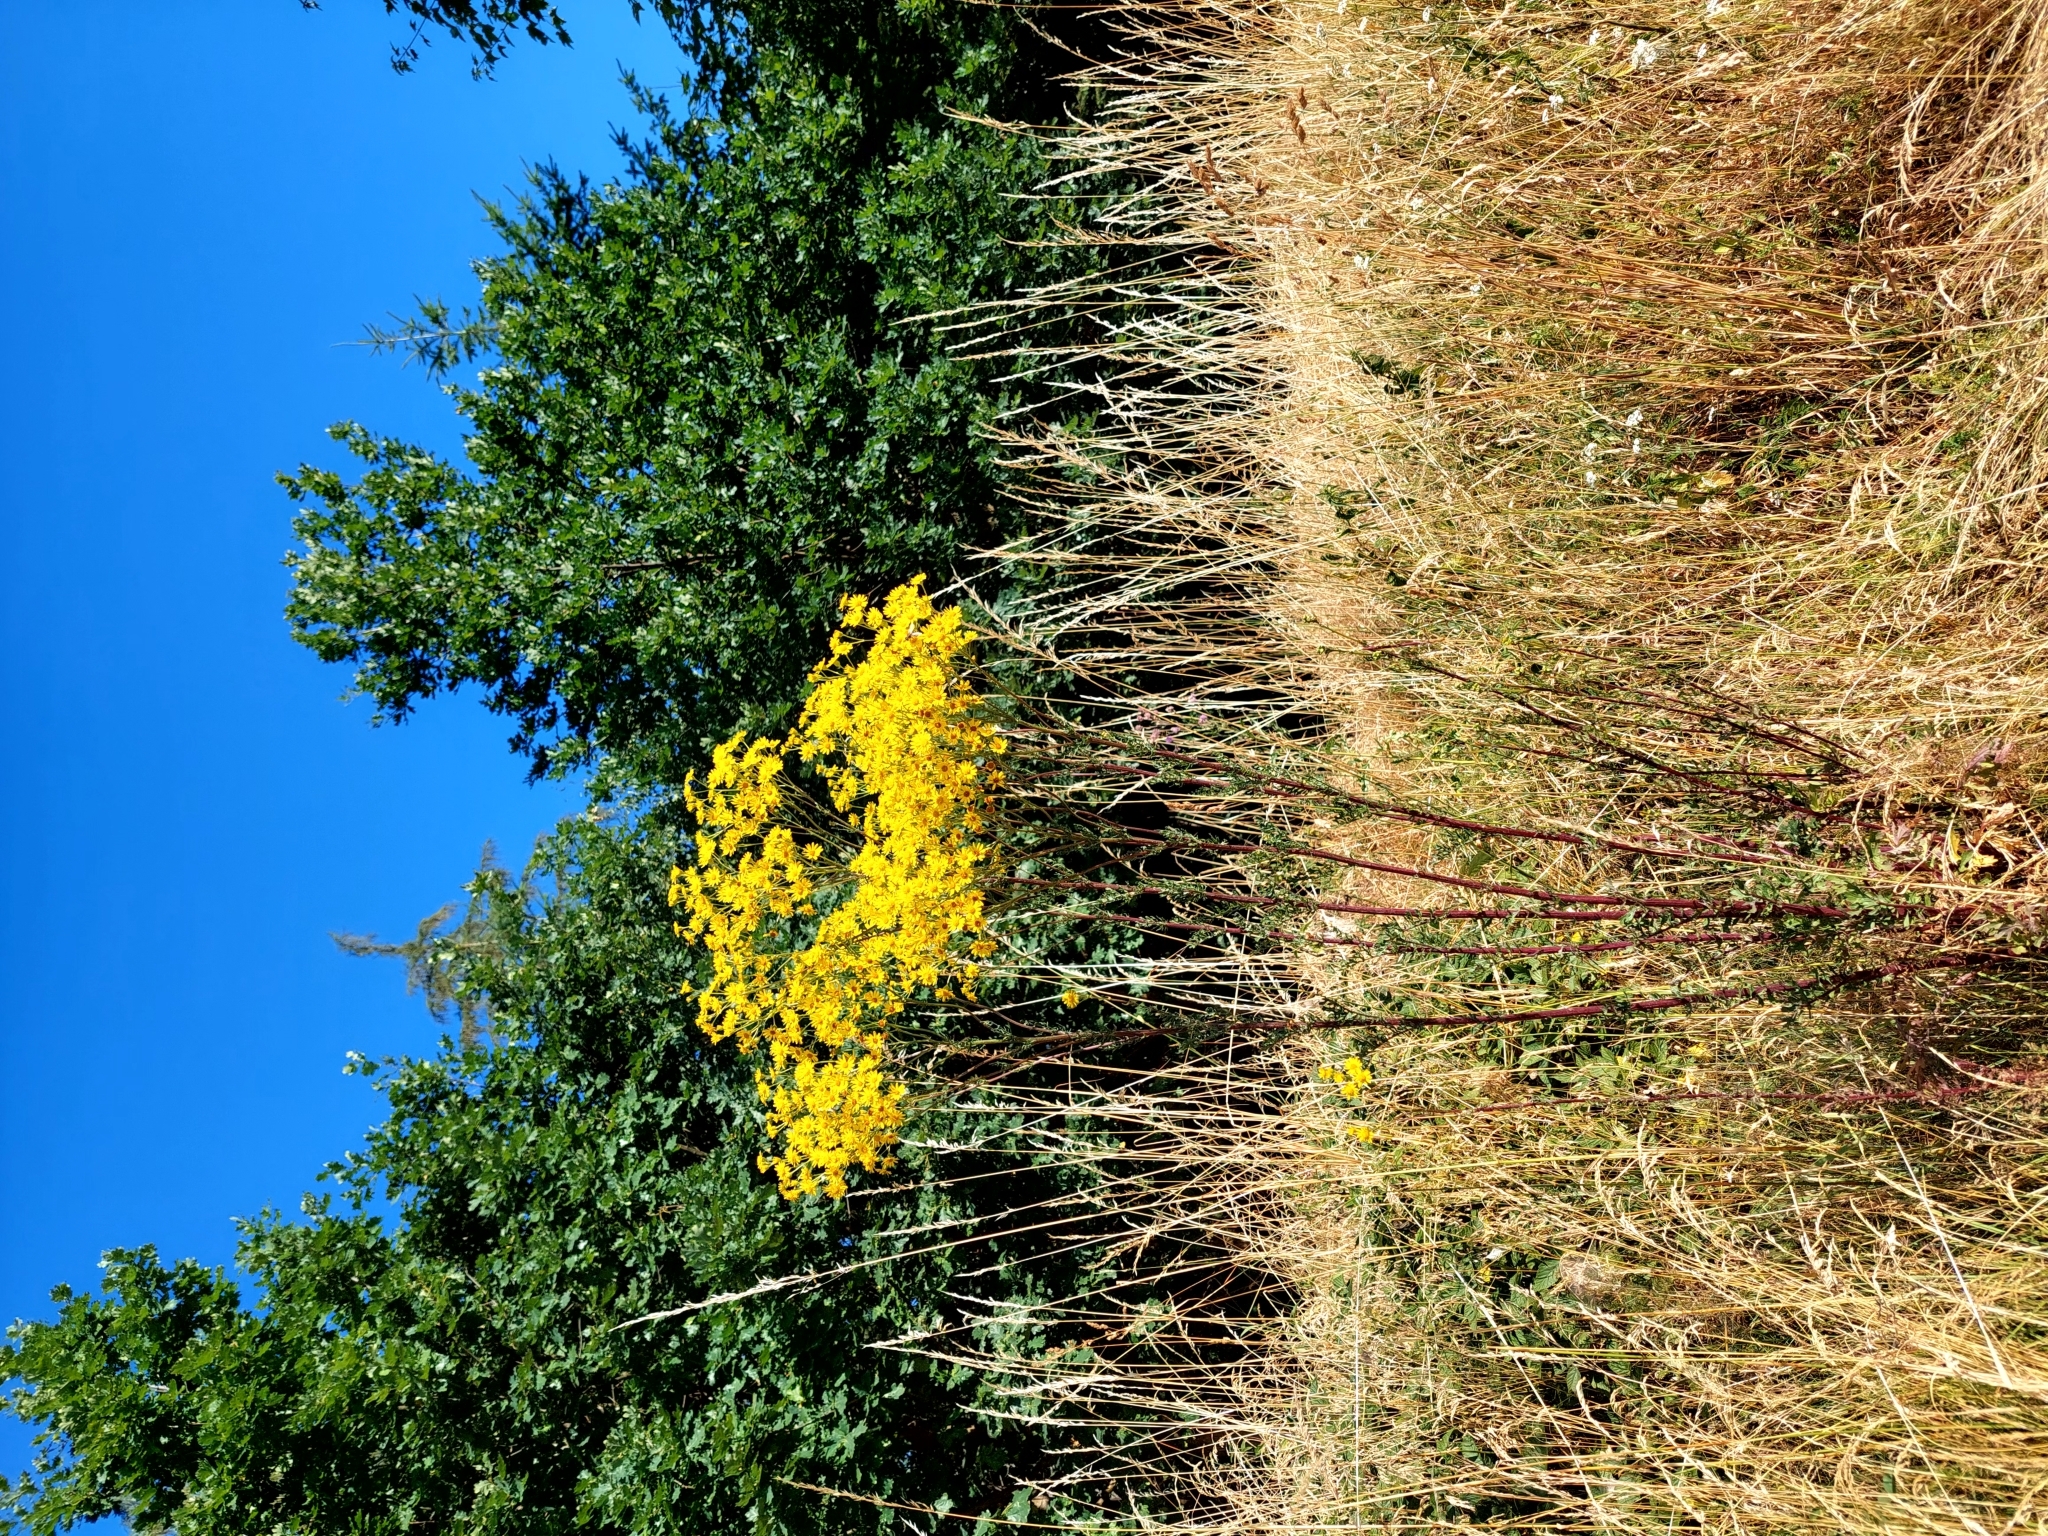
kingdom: Plantae
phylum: Tracheophyta
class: Magnoliopsida
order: Asterales
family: Asteraceae
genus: Jacobaea
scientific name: Jacobaea vulgaris
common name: Stinking willie
